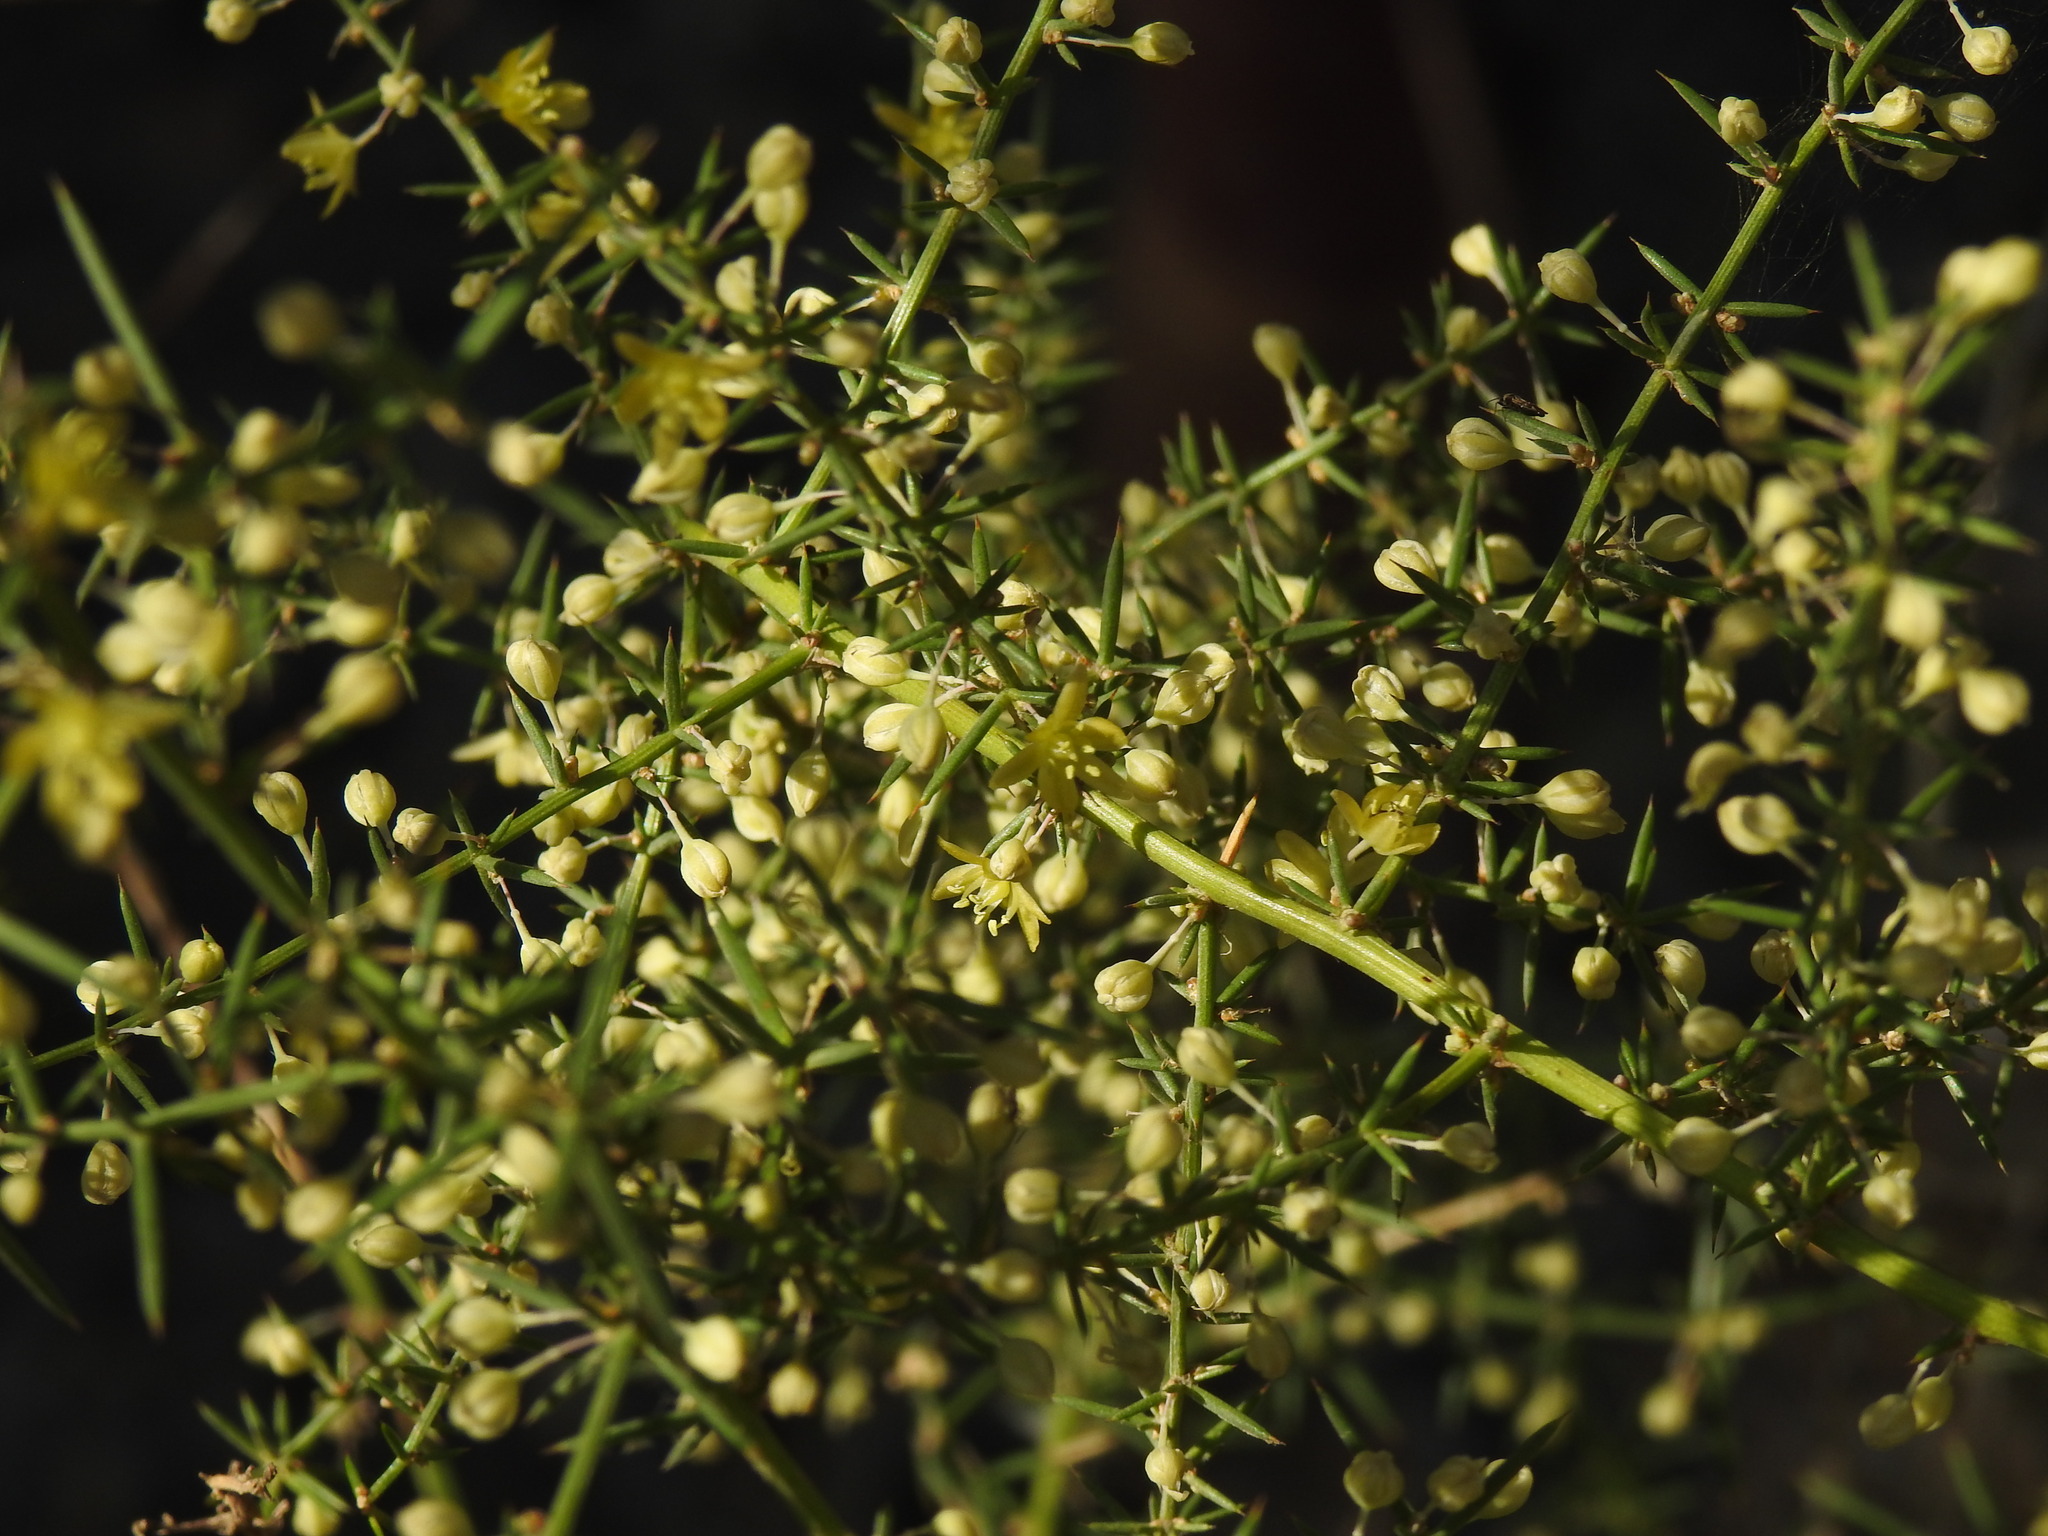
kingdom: Plantae
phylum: Tracheophyta
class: Liliopsida
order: Asparagales
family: Asparagaceae
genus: Asparagus
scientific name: Asparagus aphyllus
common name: Mediterranean asparagus
